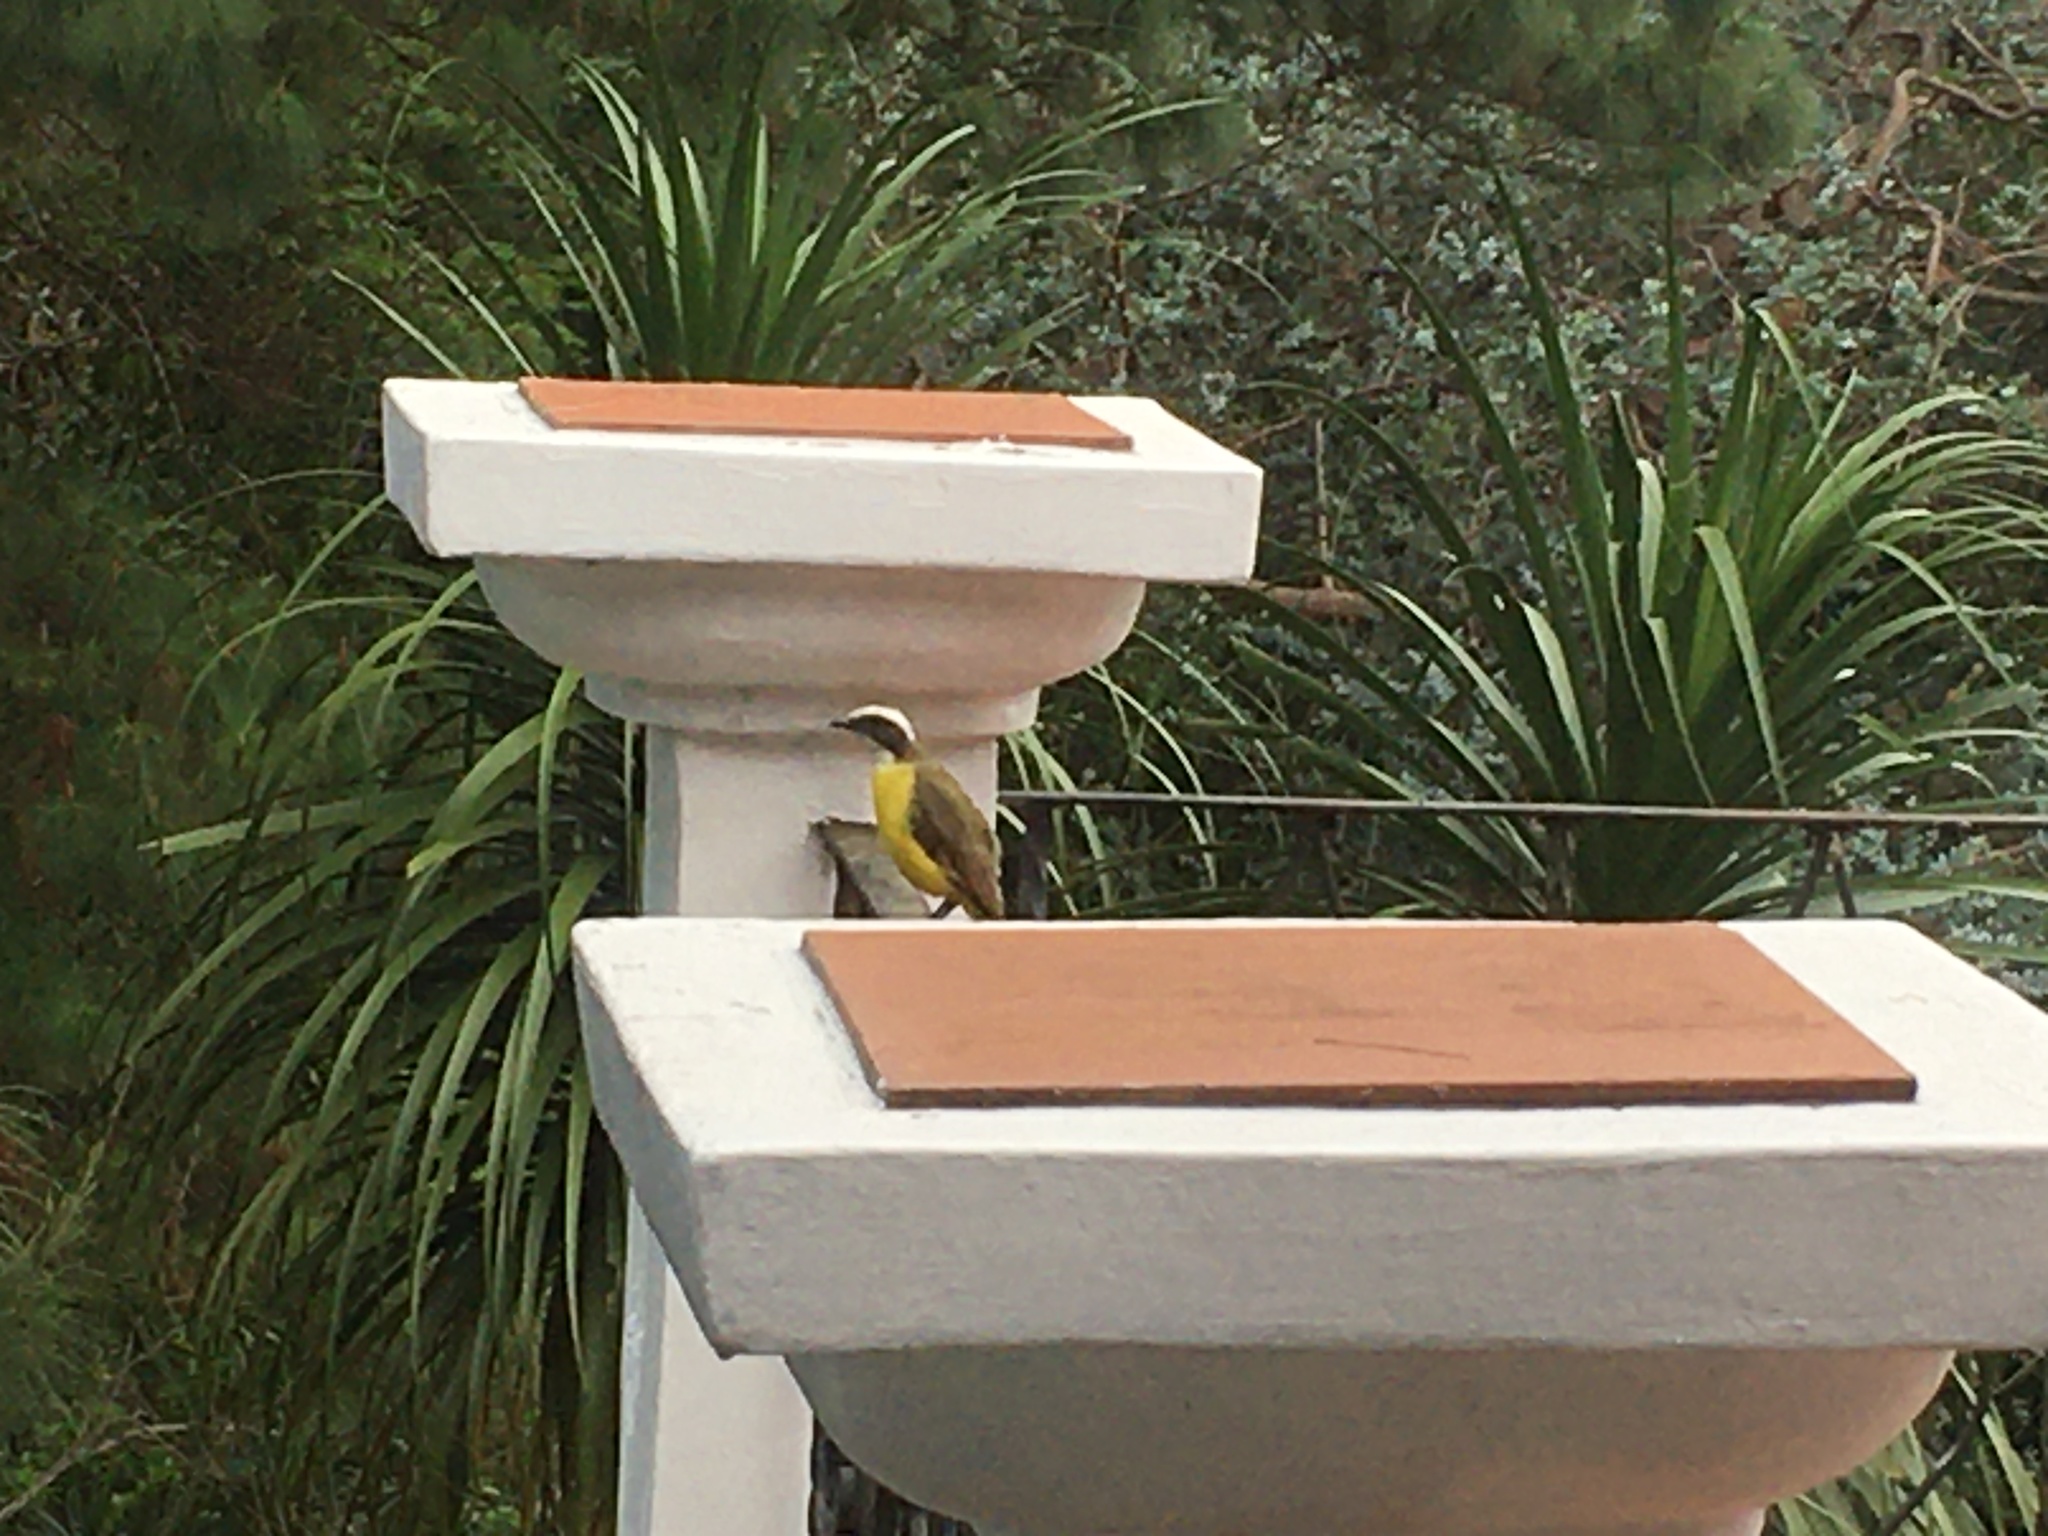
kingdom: Animalia
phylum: Chordata
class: Aves
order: Passeriformes
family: Tyrannidae
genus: Myiozetetes
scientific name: Myiozetetes similis
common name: Social flycatcher
